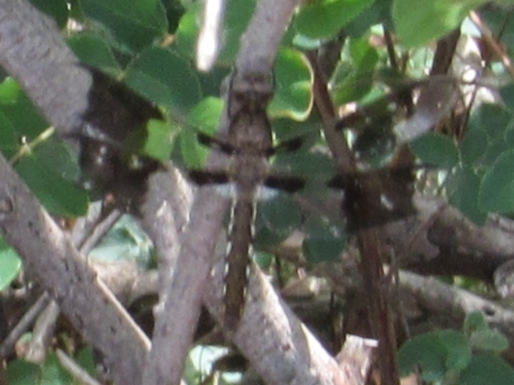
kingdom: Animalia
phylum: Arthropoda
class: Insecta
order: Odonata
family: Libellulidae
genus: Plathemis
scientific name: Plathemis lydia
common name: Common whitetail
